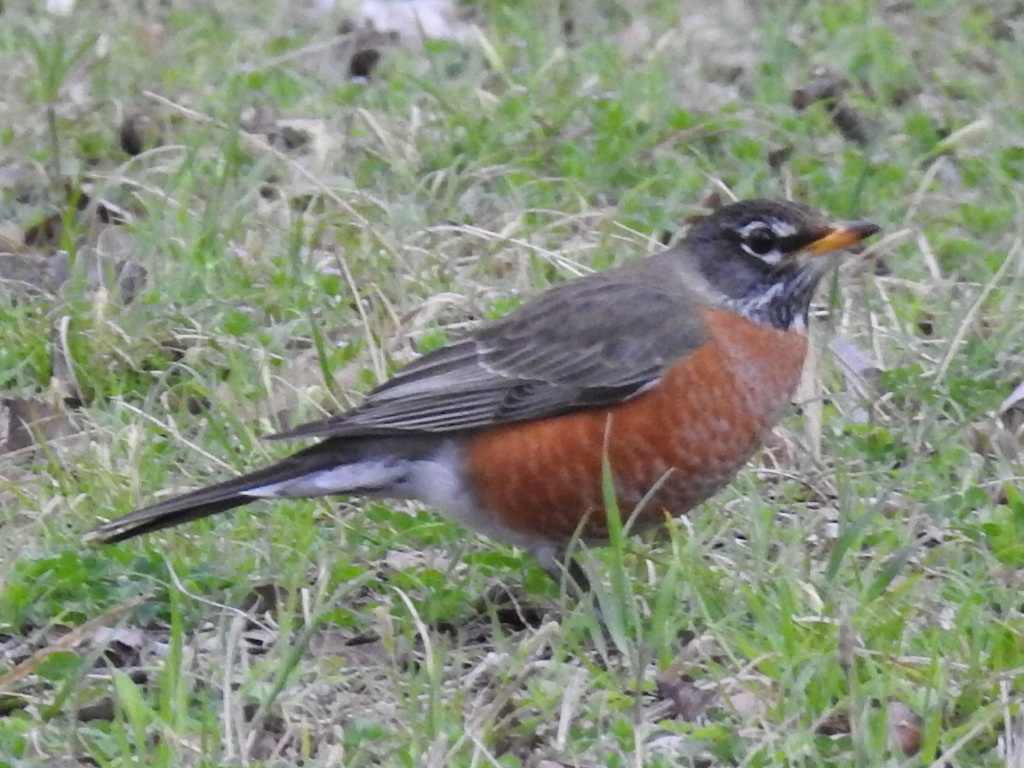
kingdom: Animalia
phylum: Chordata
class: Aves
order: Passeriformes
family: Turdidae
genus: Turdus
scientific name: Turdus migratorius
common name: American robin
